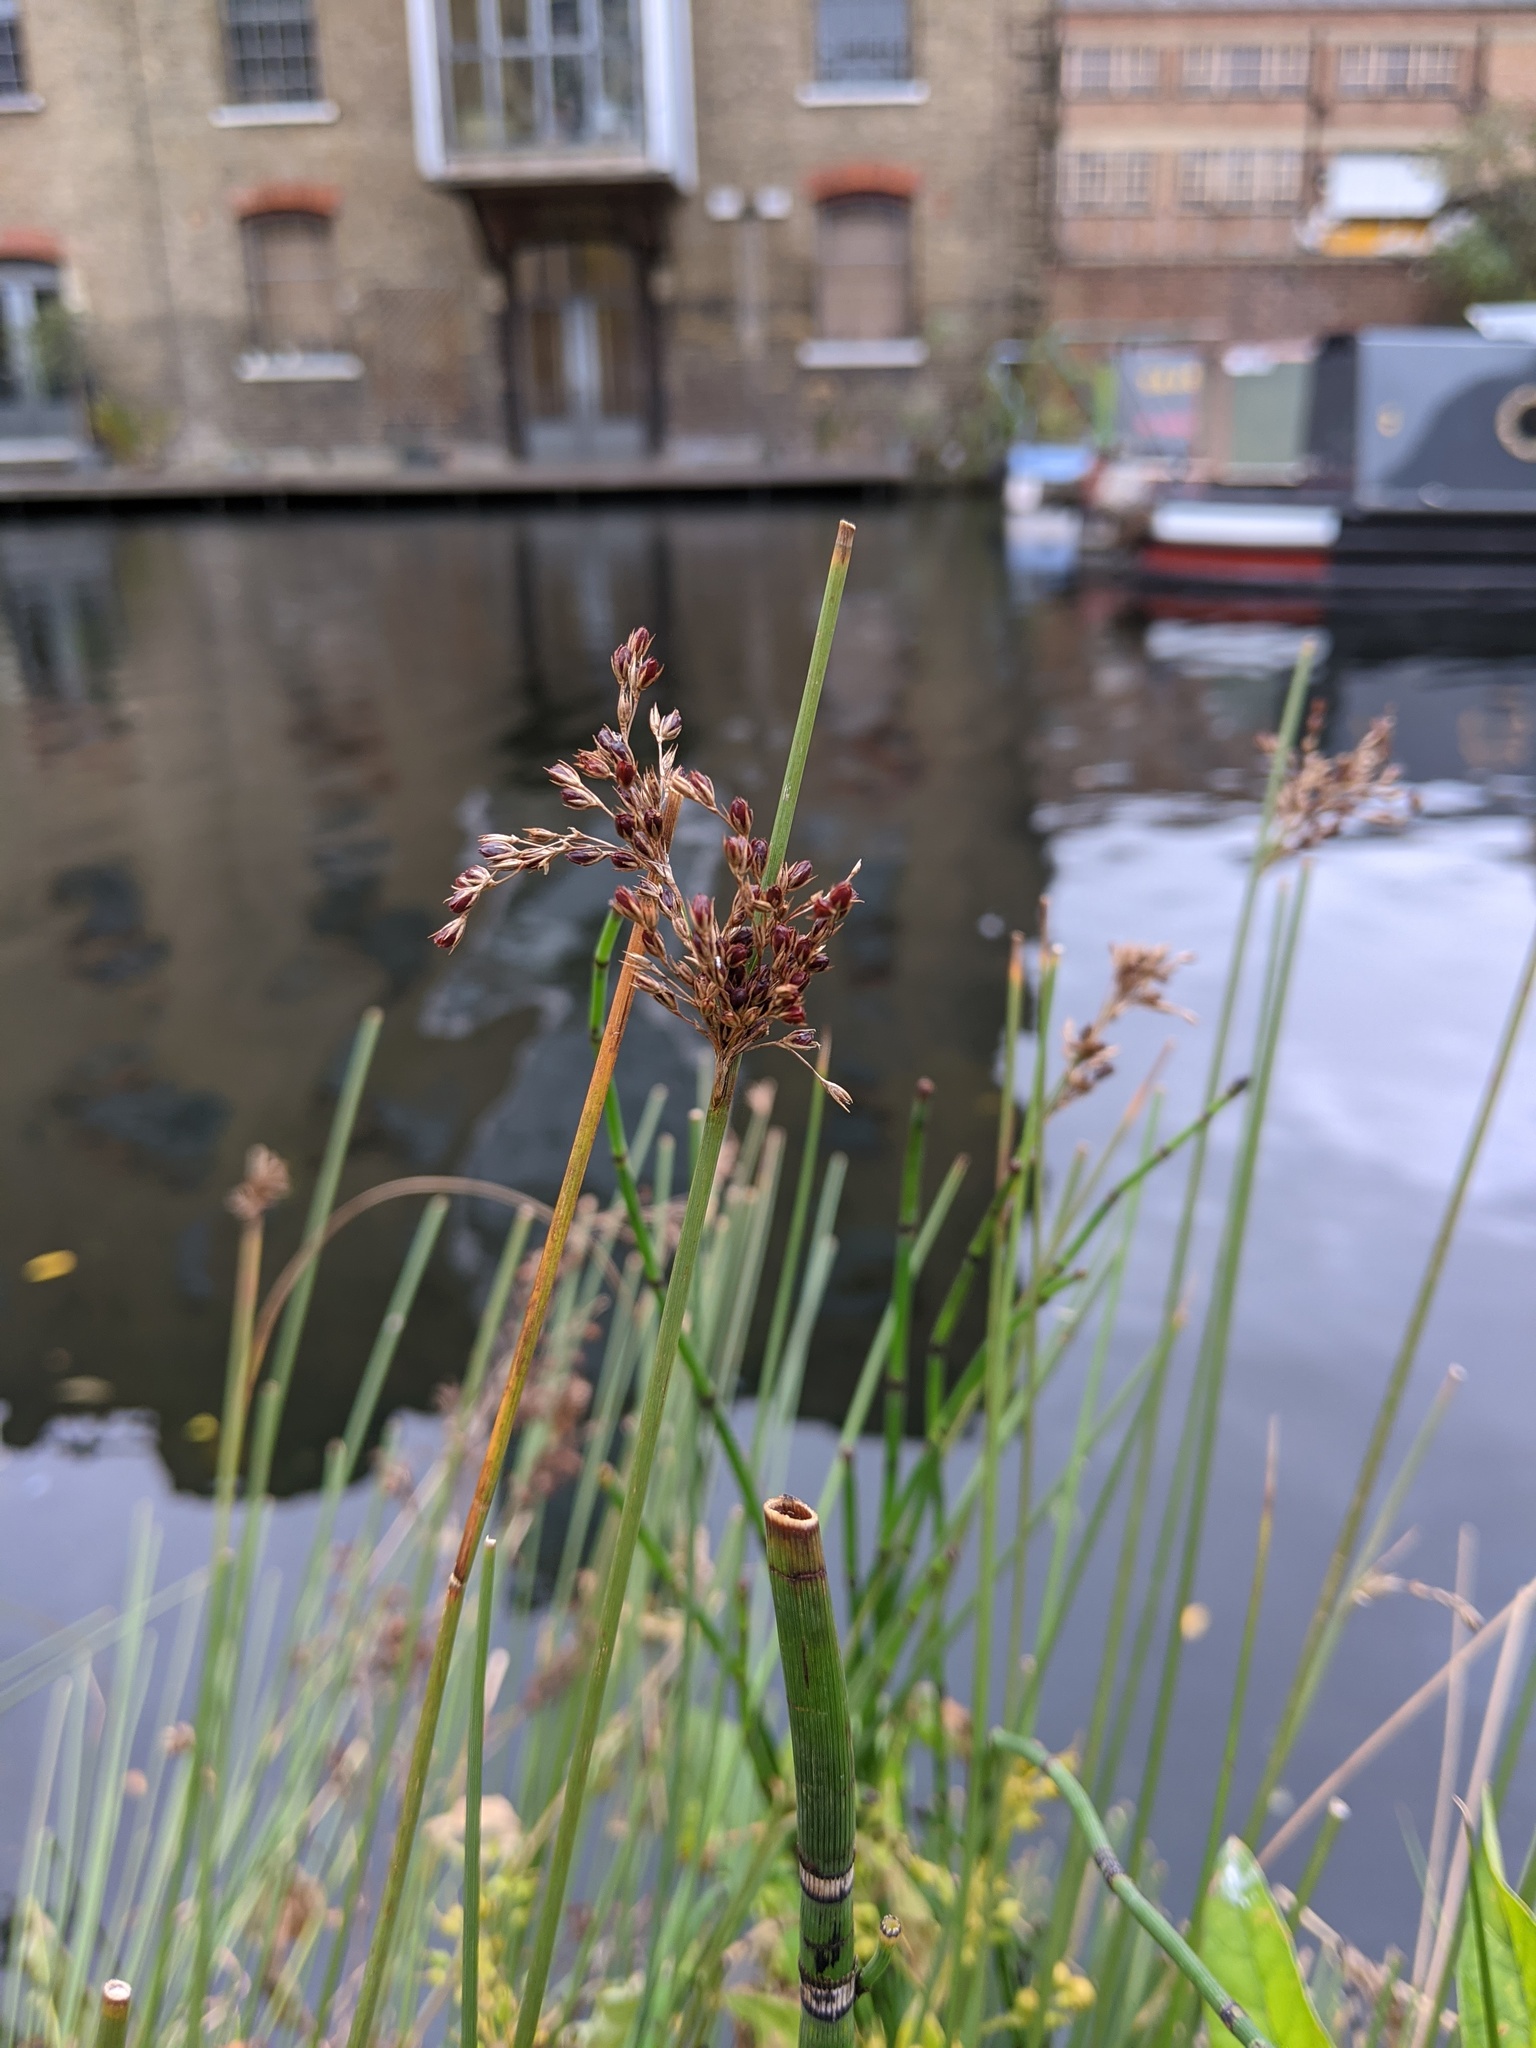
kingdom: Plantae
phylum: Tracheophyta
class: Liliopsida
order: Poales
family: Juncaceae
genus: Juncus
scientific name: Juncus inflexus
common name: Hard rush
